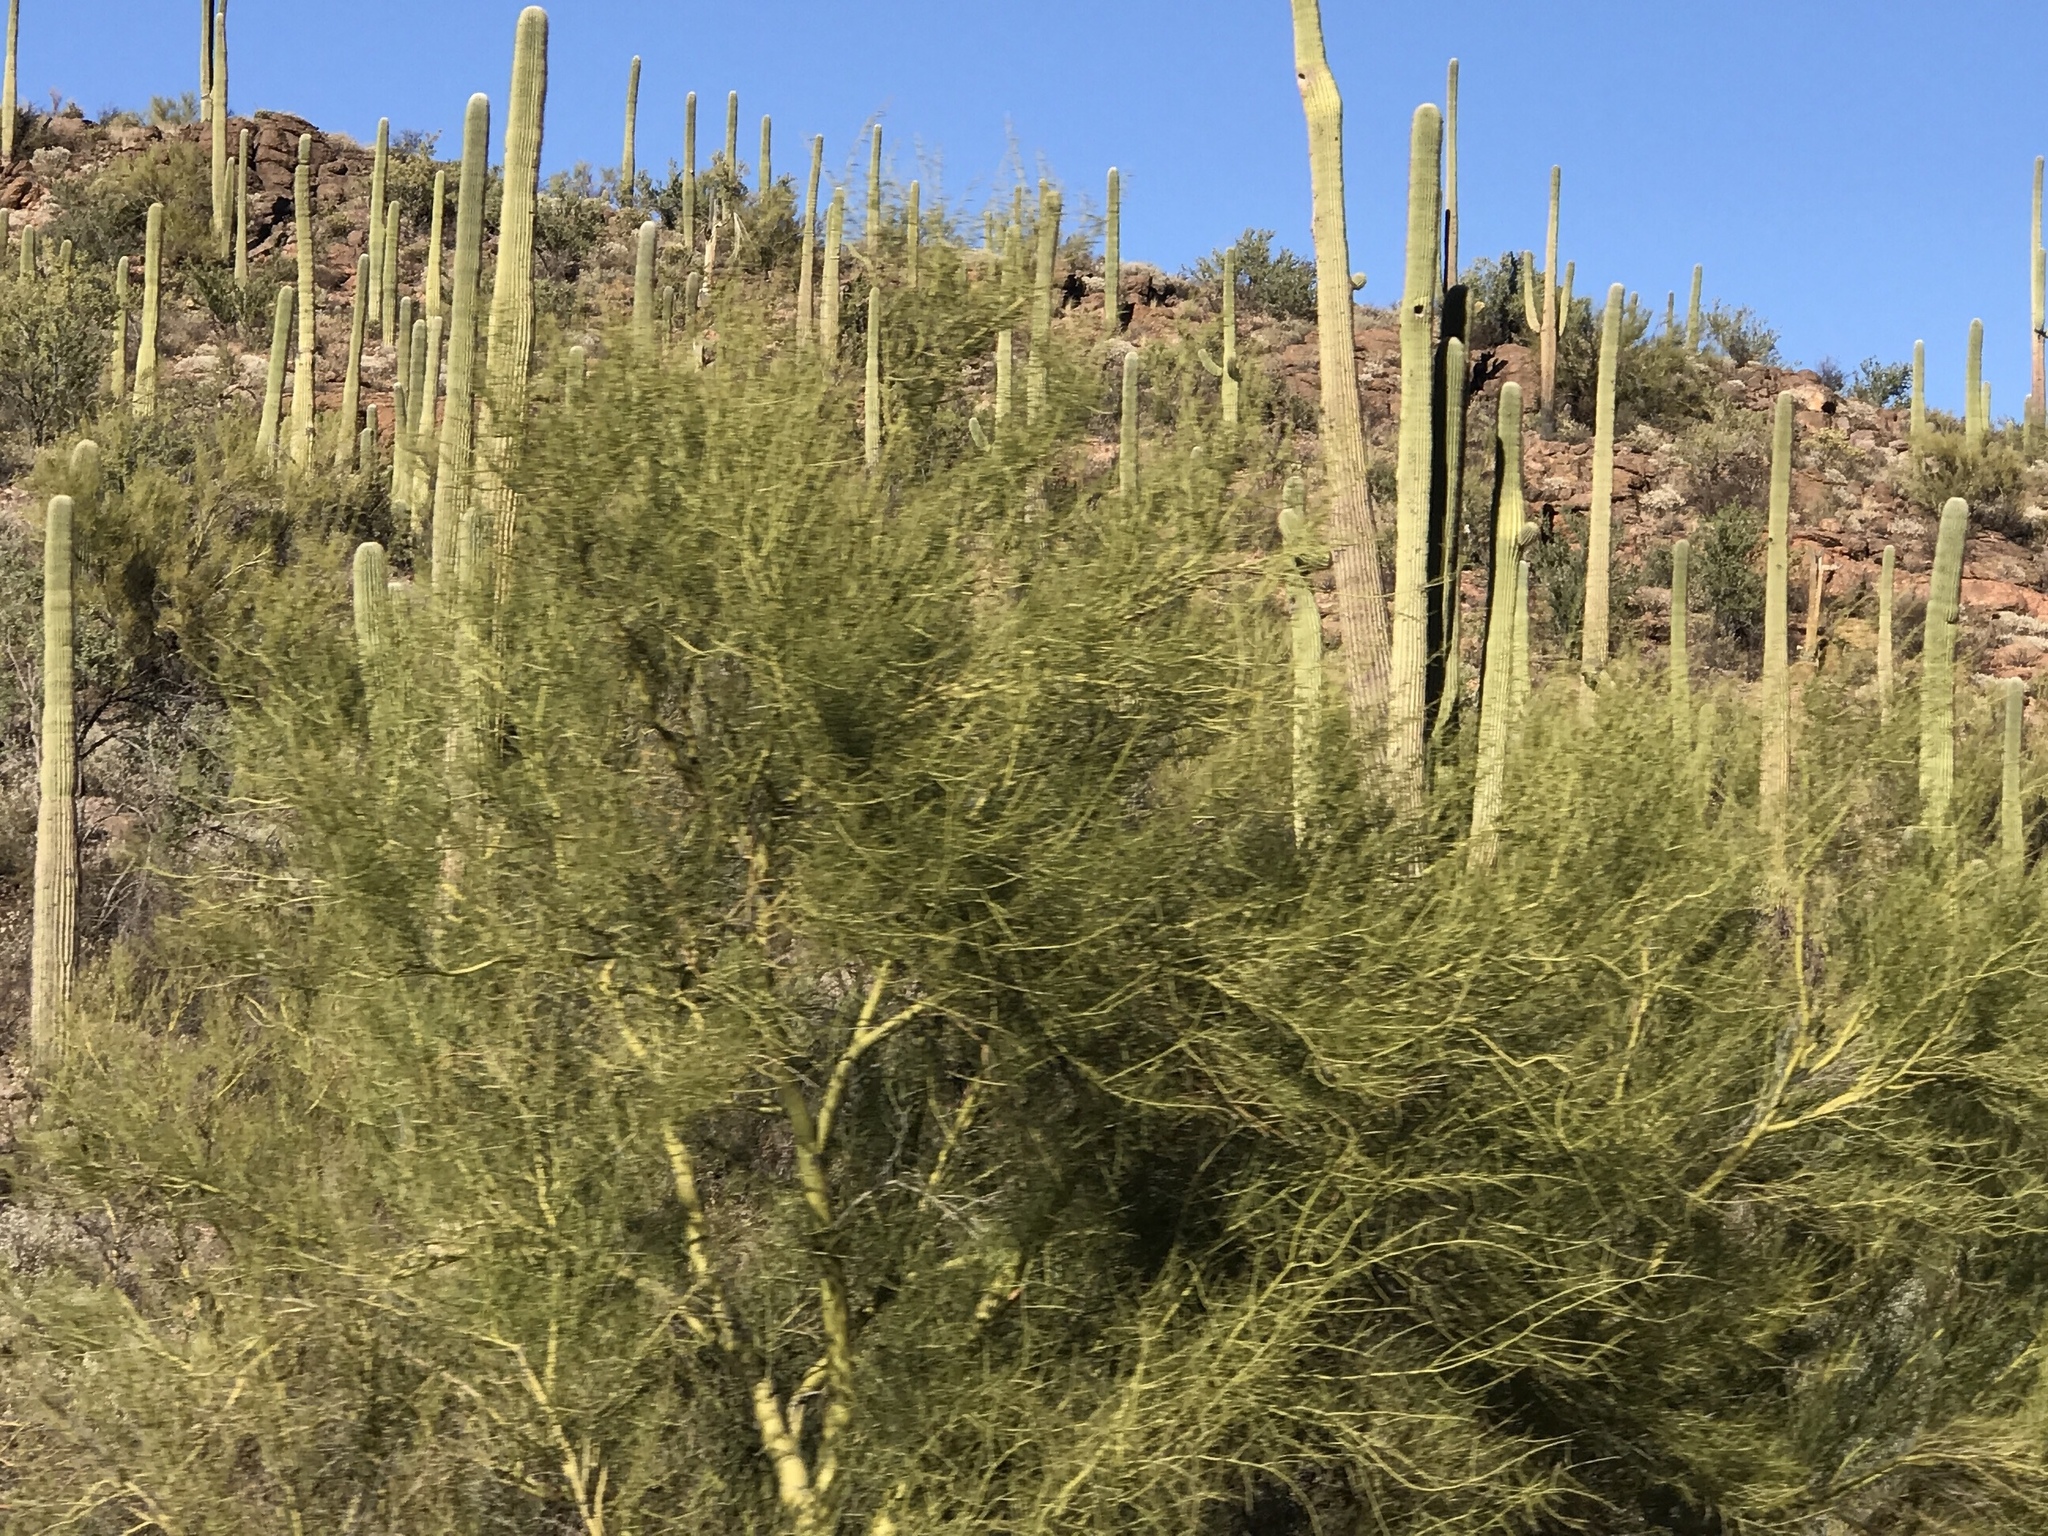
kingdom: Plantae
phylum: Tracheophyta
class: Magnoliopsida
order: Fabales
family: Fabaceae
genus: Parkinsonia
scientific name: Parkinsonia microphylla
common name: Yellow paloverde
